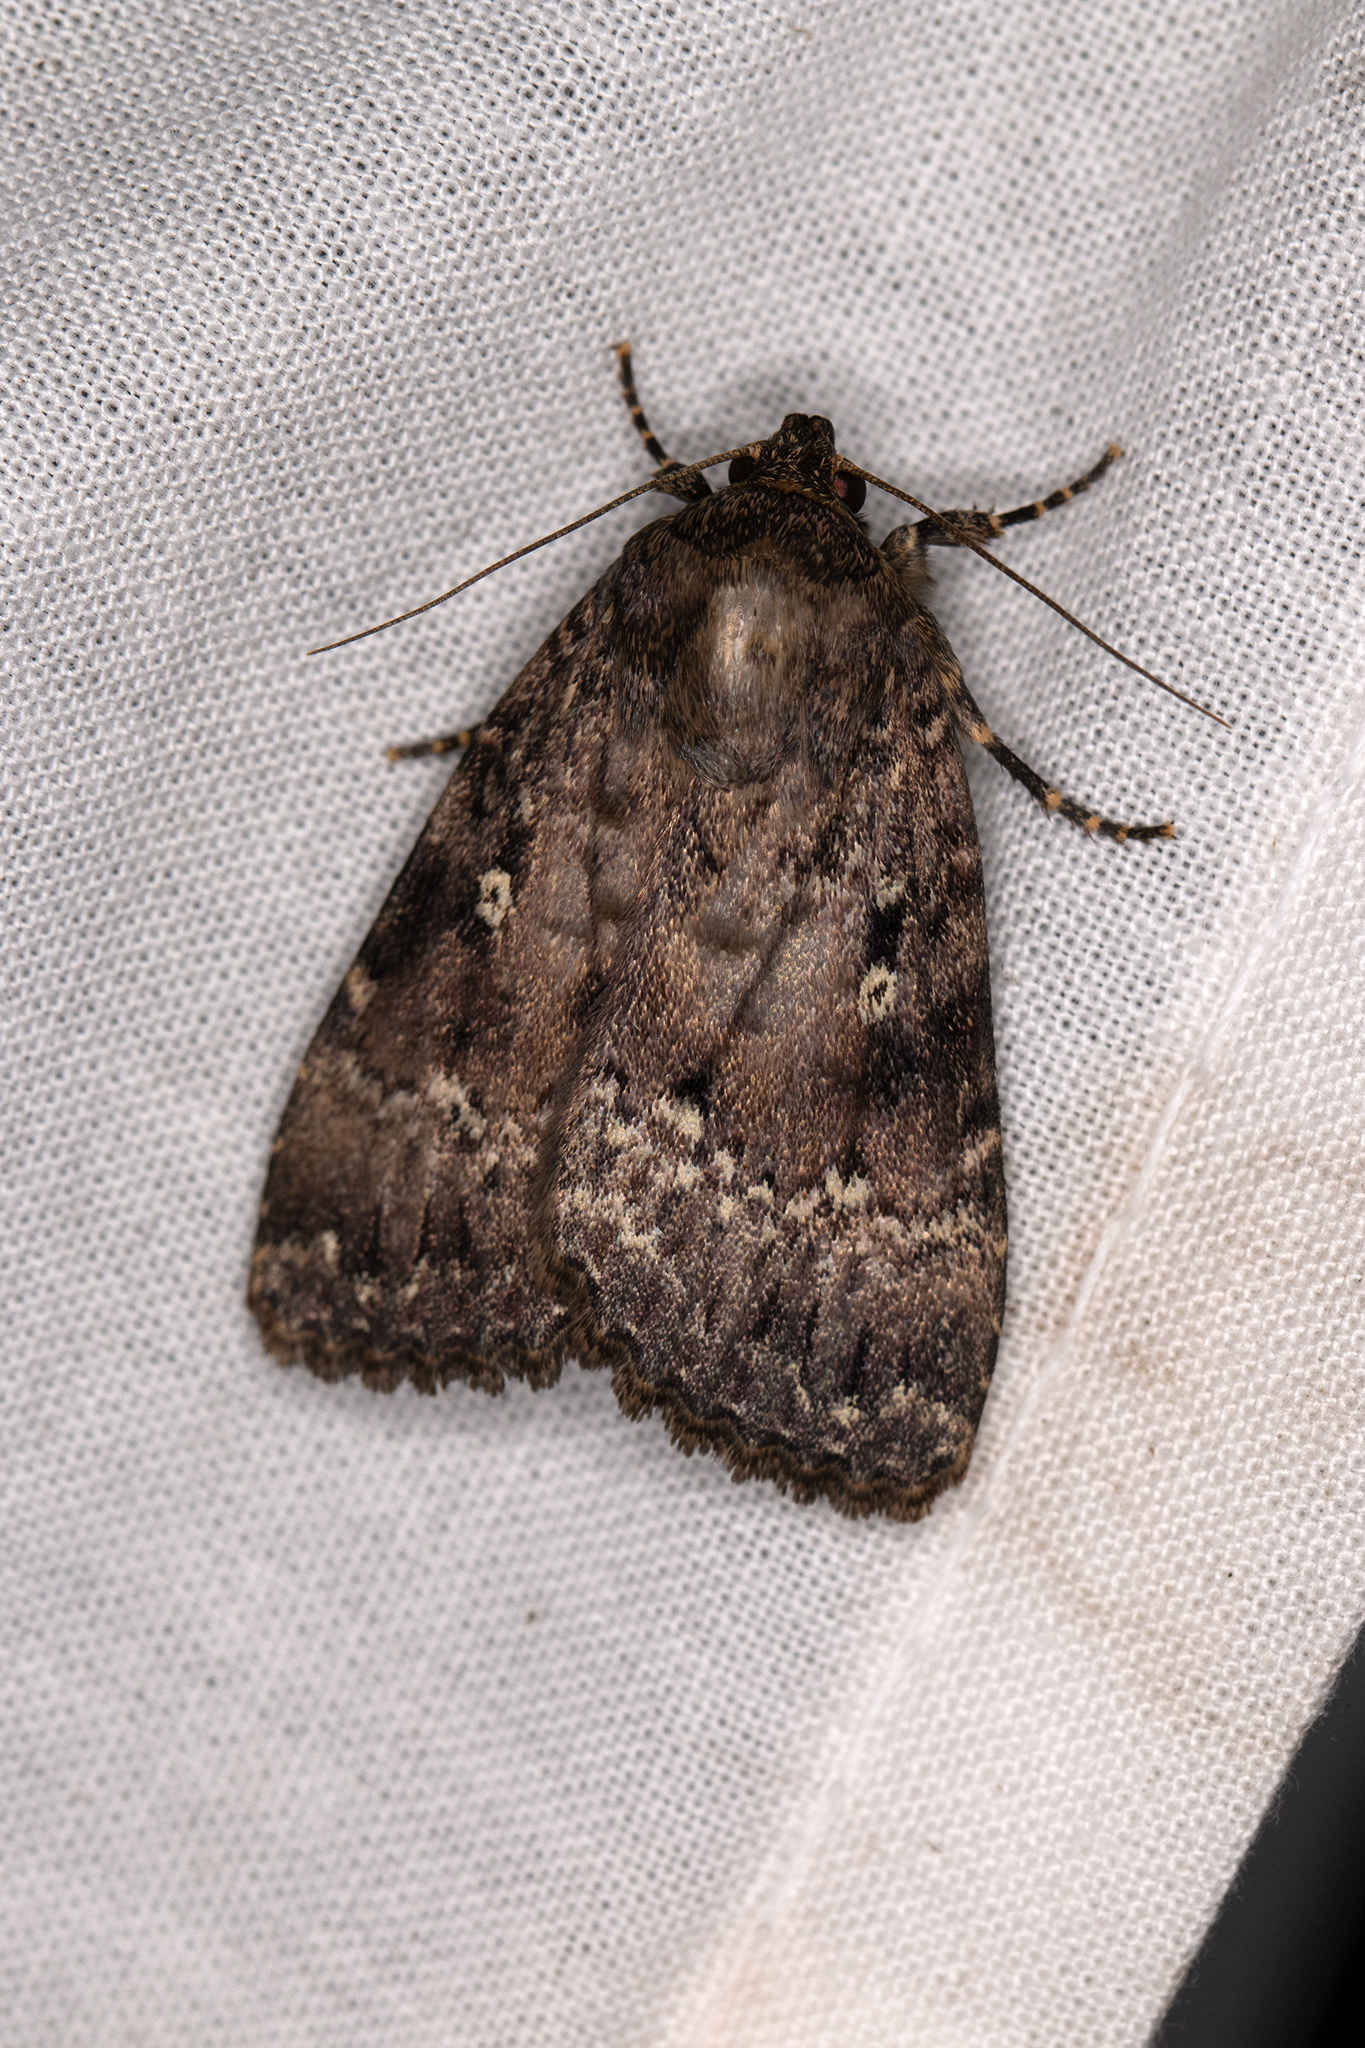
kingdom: Animalia
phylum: Arthropoda
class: Insecta
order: Lepidoptera
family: Noctuidae
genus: Amphipyra
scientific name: Amphipyra pyramidea
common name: Copper underwing
